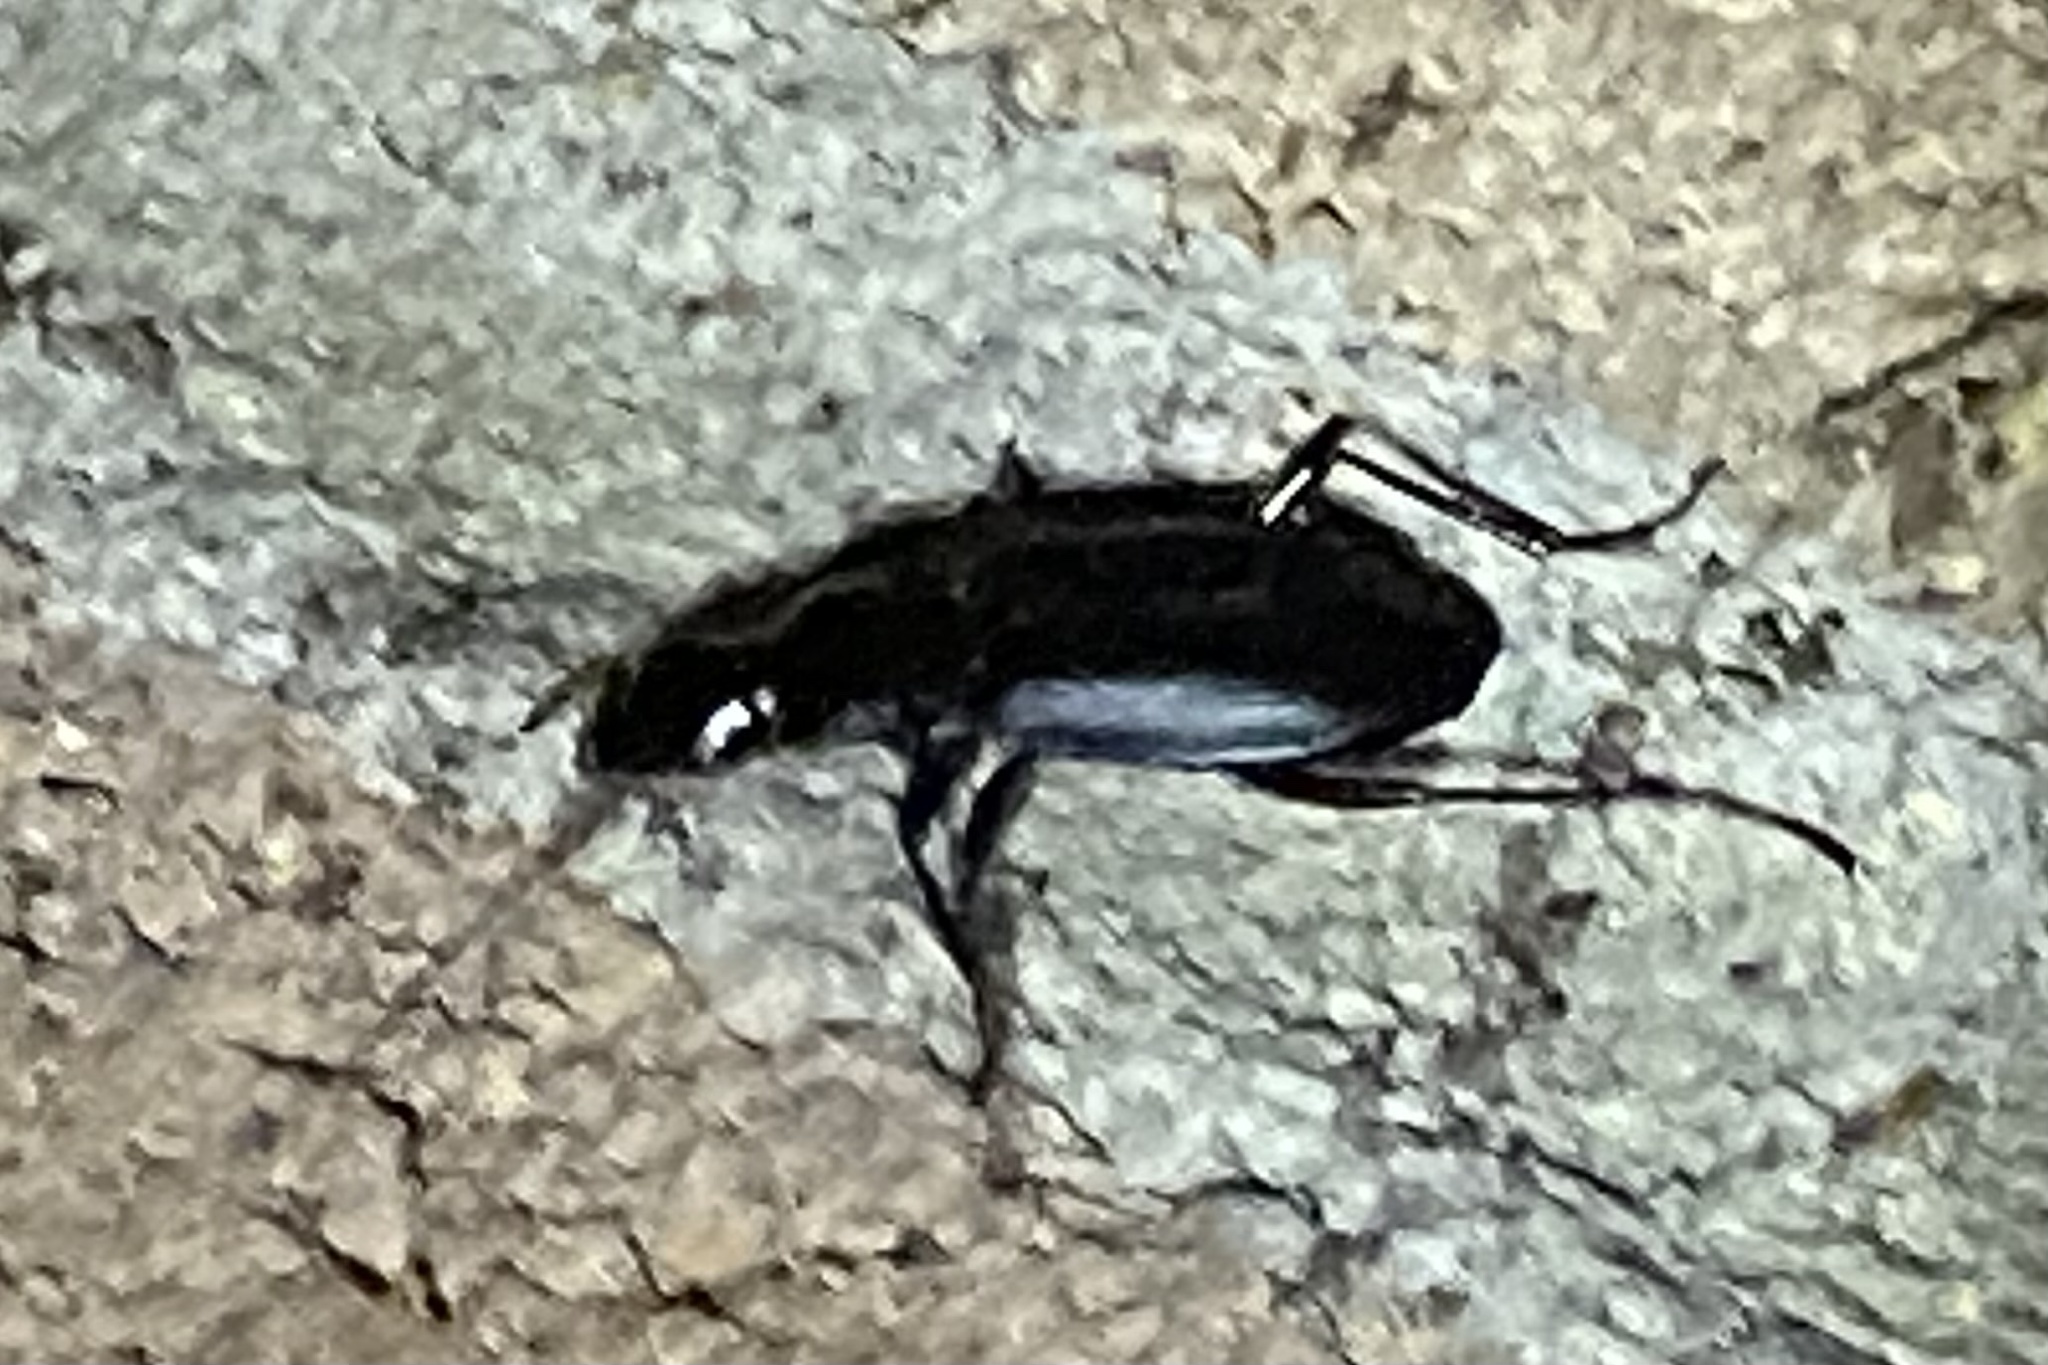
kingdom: Animalia
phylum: Arthropoda
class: Insecta
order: Coleoptera
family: Carabidae
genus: Laemostenus
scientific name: Laemostenus complanatus
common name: Cosmopolitan ground beetle
